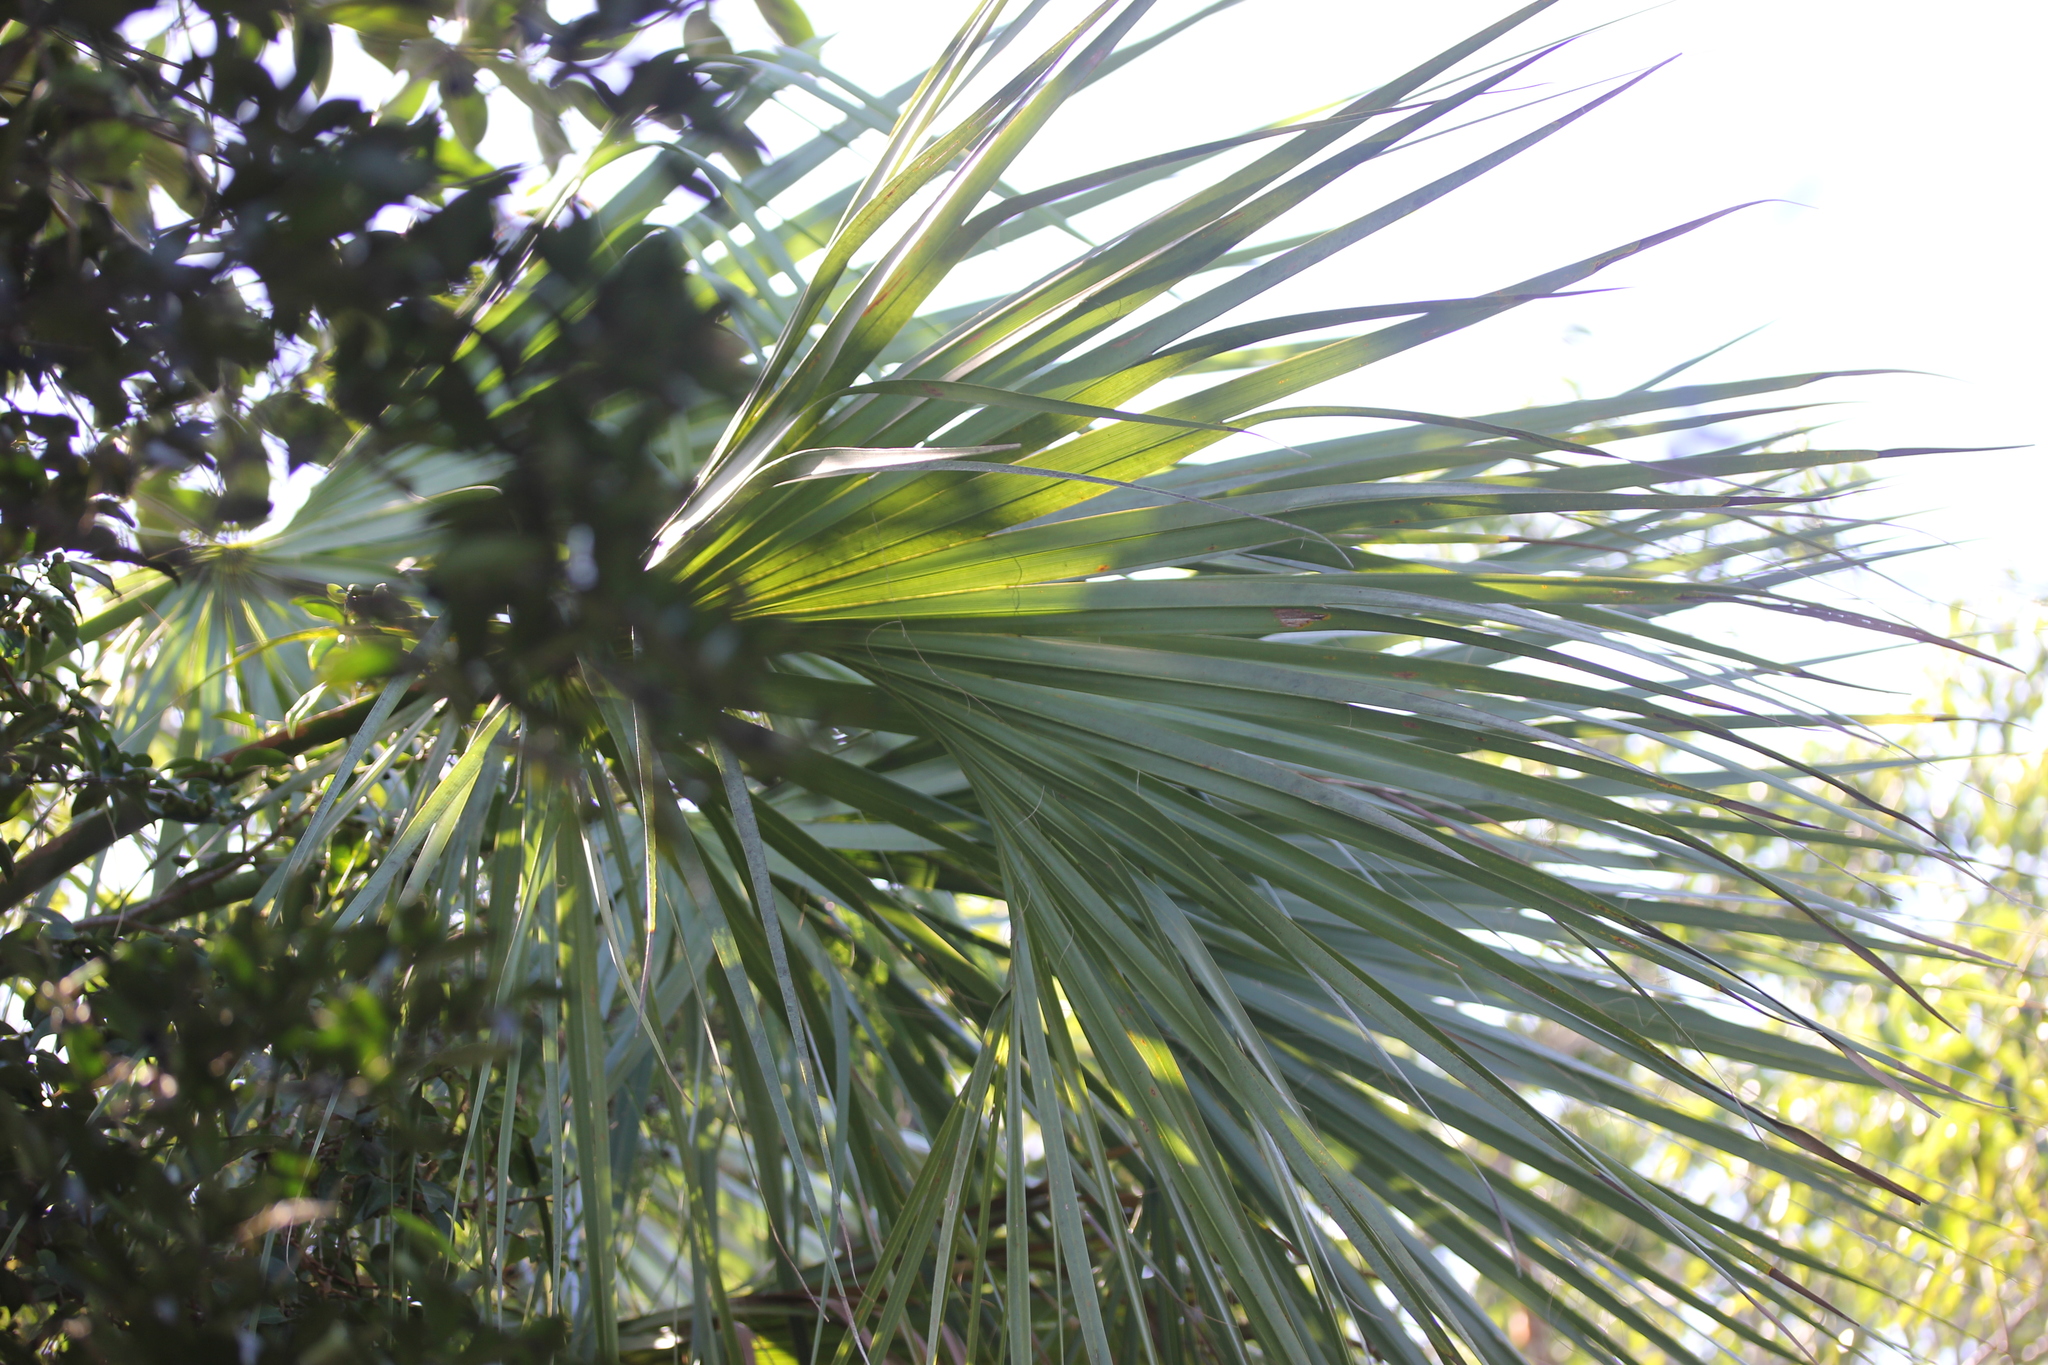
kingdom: Plantae
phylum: Tracheophyta
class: Liliopsida
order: Arecales
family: Arecaceae
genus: Sabal
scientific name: Sabal palmetto
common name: Blue palmetto
